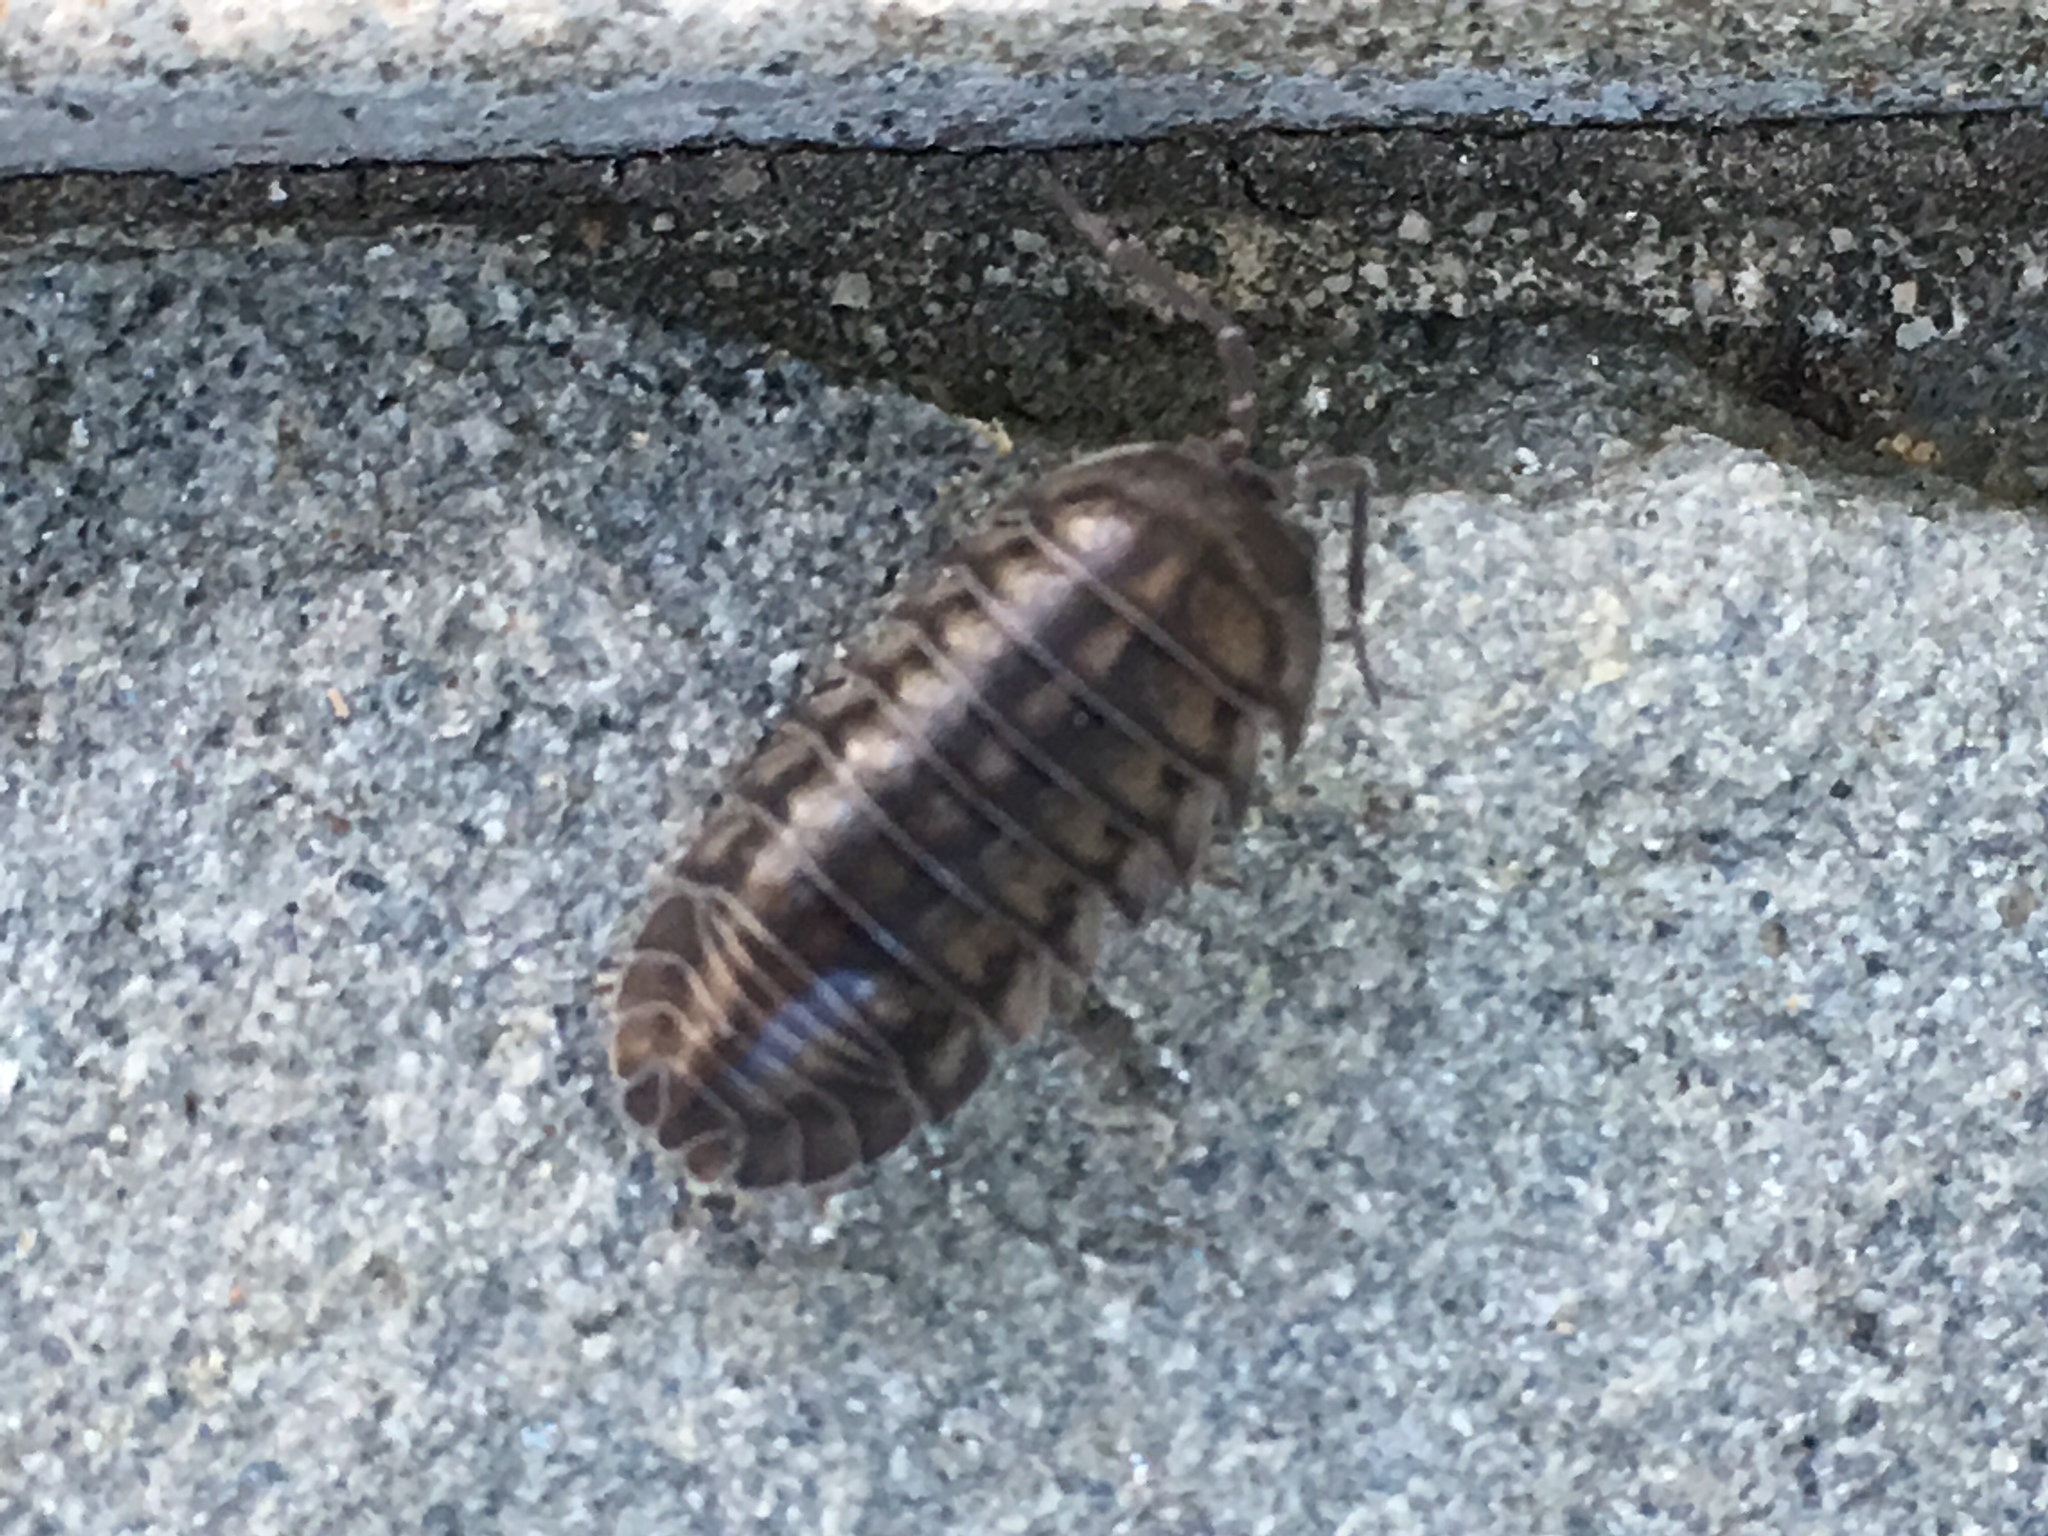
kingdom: Animalia
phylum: Arthropoda
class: Malacostraca
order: Isopoda
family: Armadillidiidae
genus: Armadillidium
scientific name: Armadillidium nasatum
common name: Isopod
